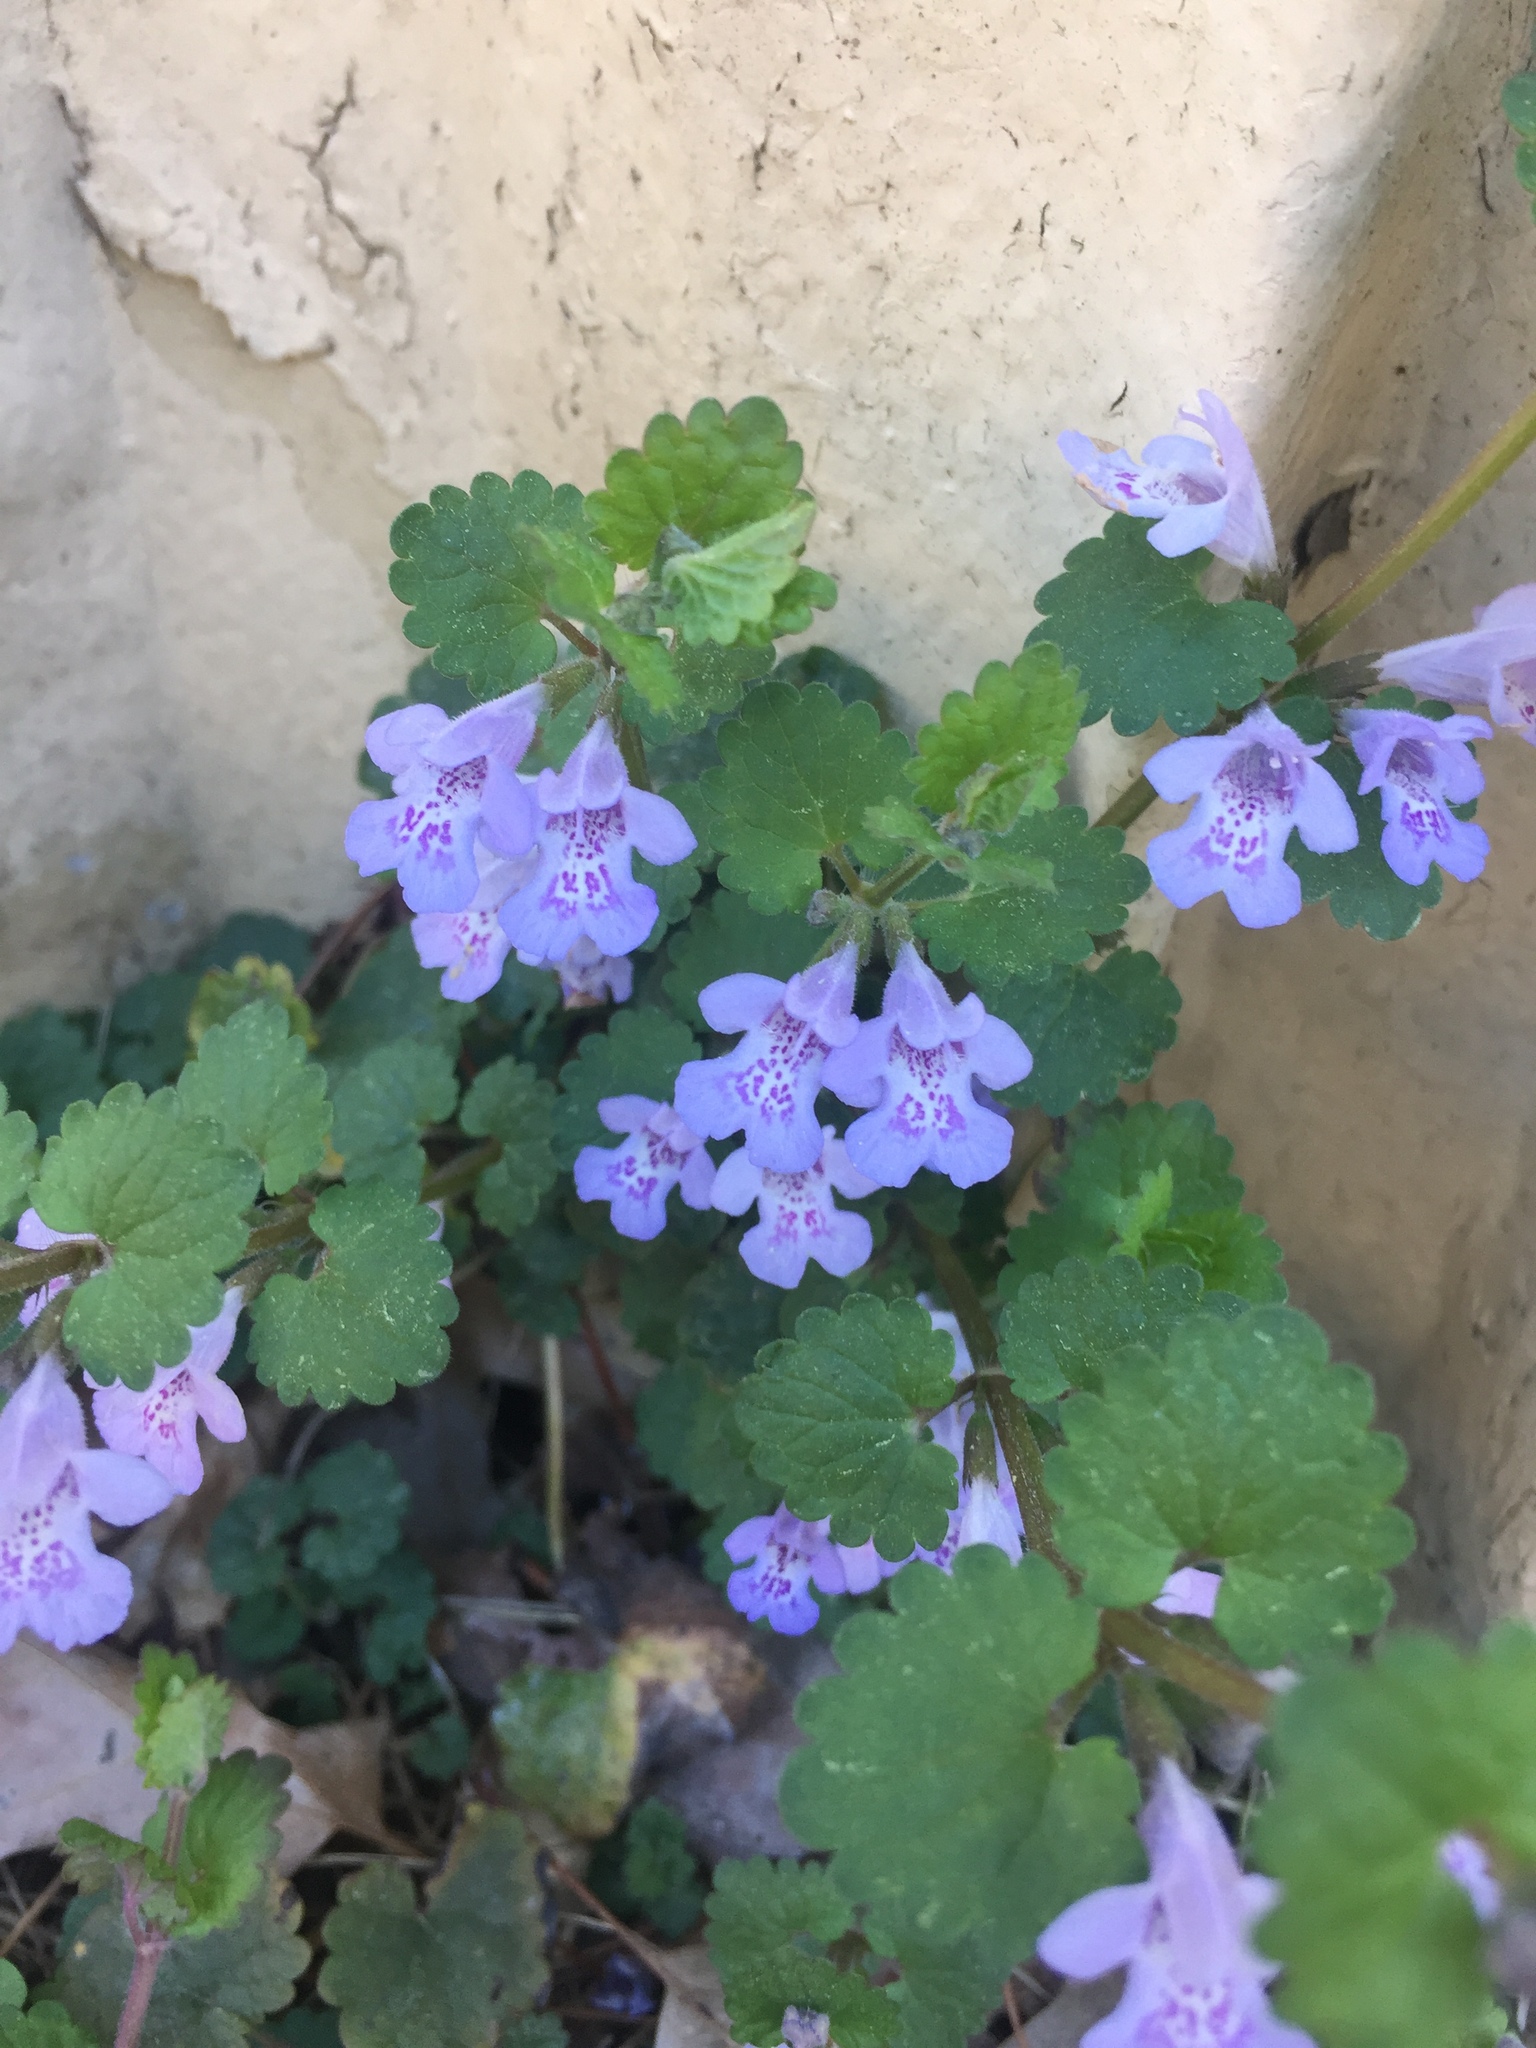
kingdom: Plantae
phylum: Tracheophyta
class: Magnoliopsida
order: Lamiales
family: Lamiaceae
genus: Glechoma
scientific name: Glechoma hederacea
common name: Ground ivy
